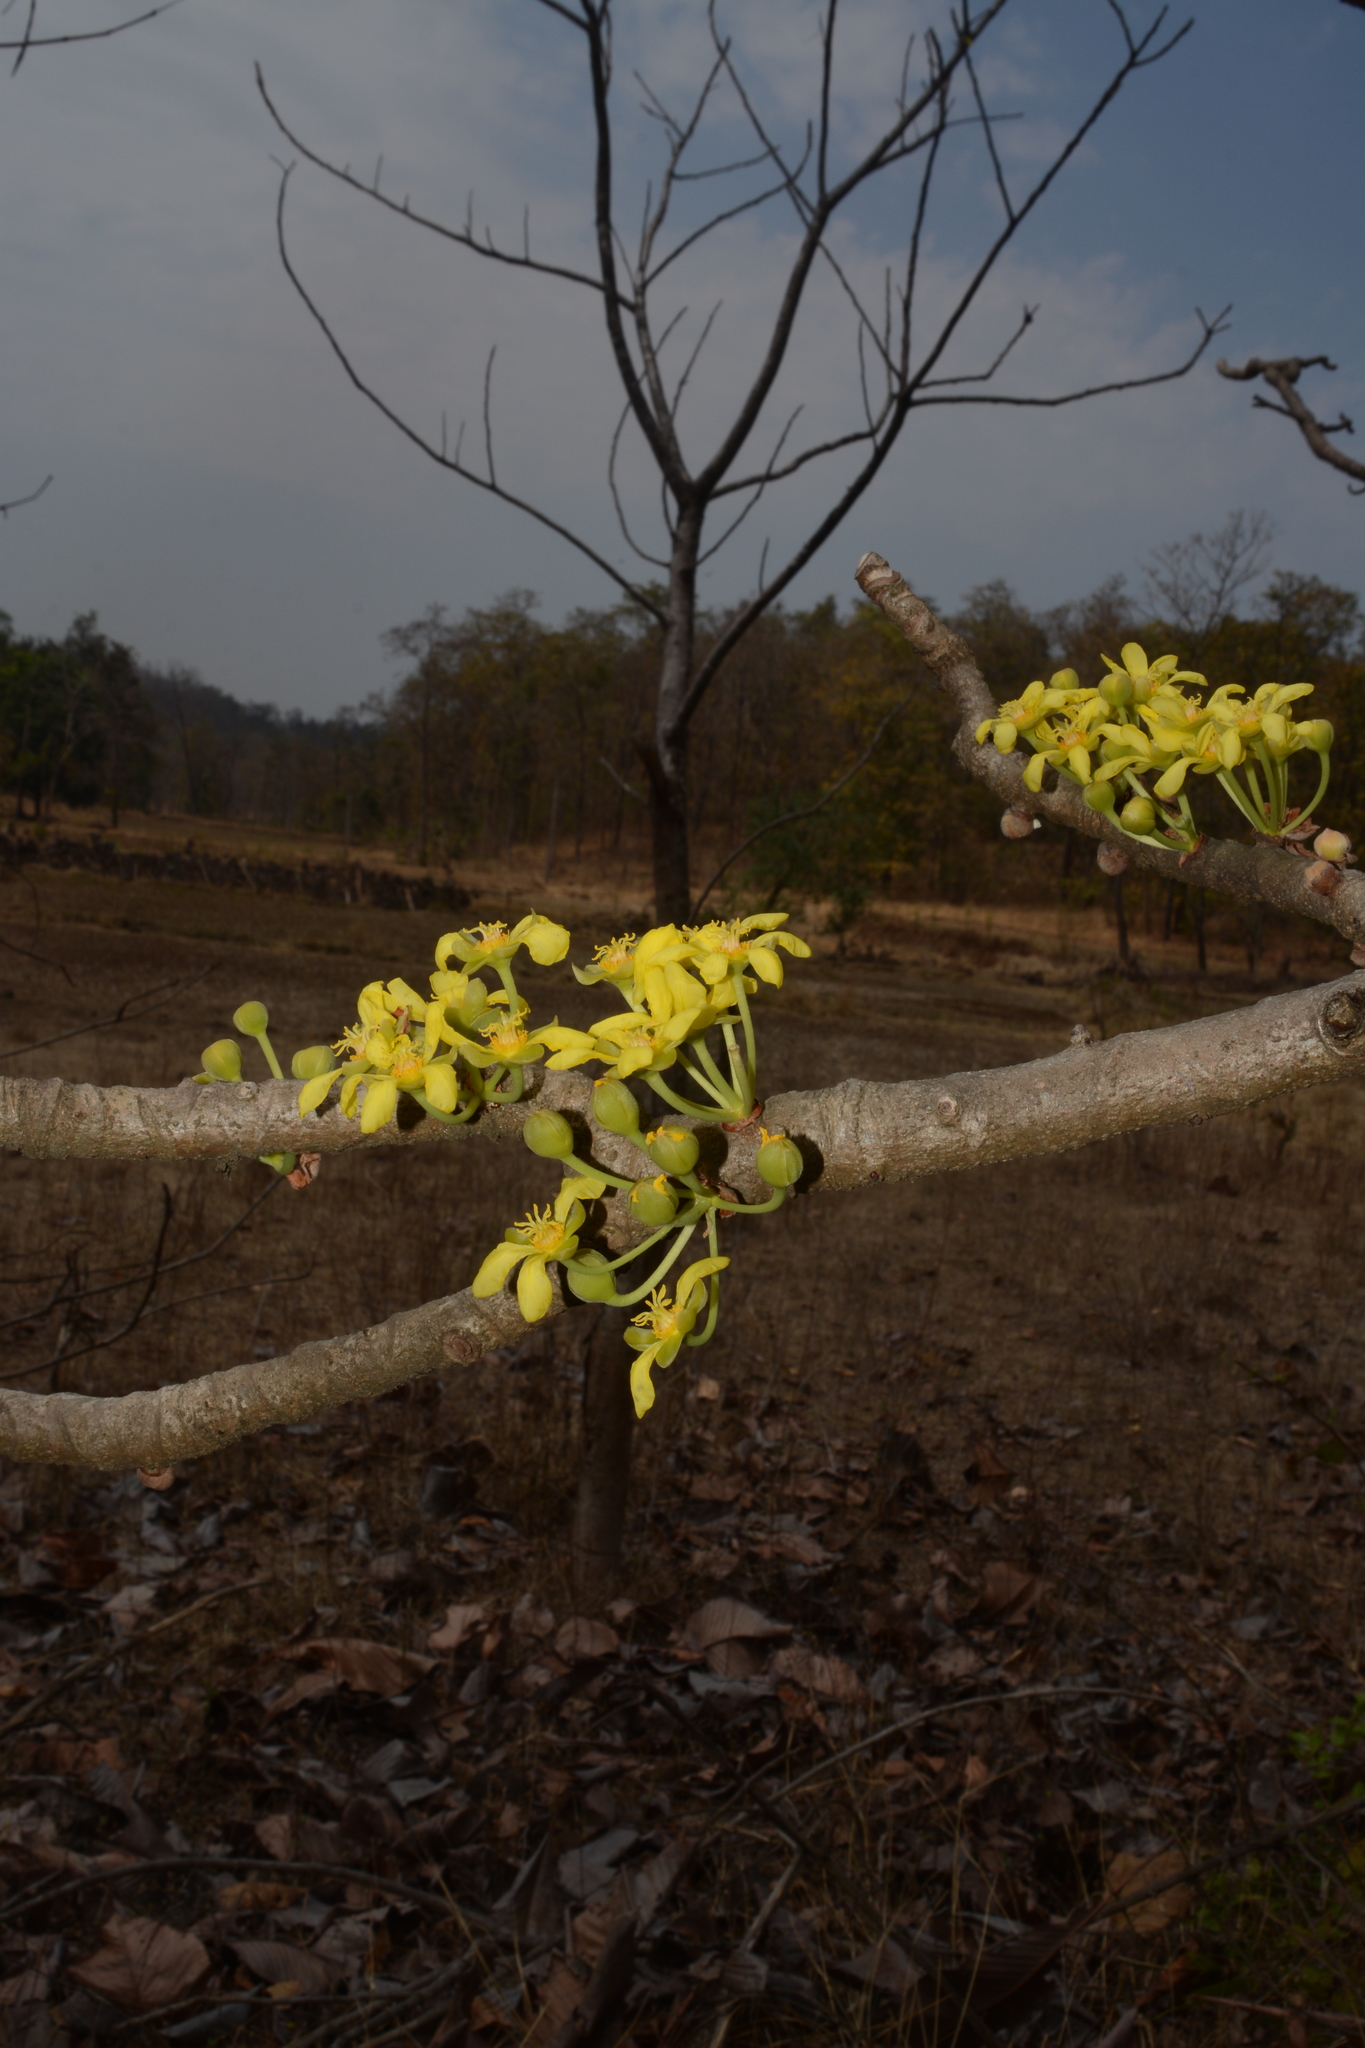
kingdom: Plantae
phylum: Tracheophyta
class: Magnoliopsida
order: Dilleniales
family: Dilleniaceae
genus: Dillenia
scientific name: Dillenia pentagyna
